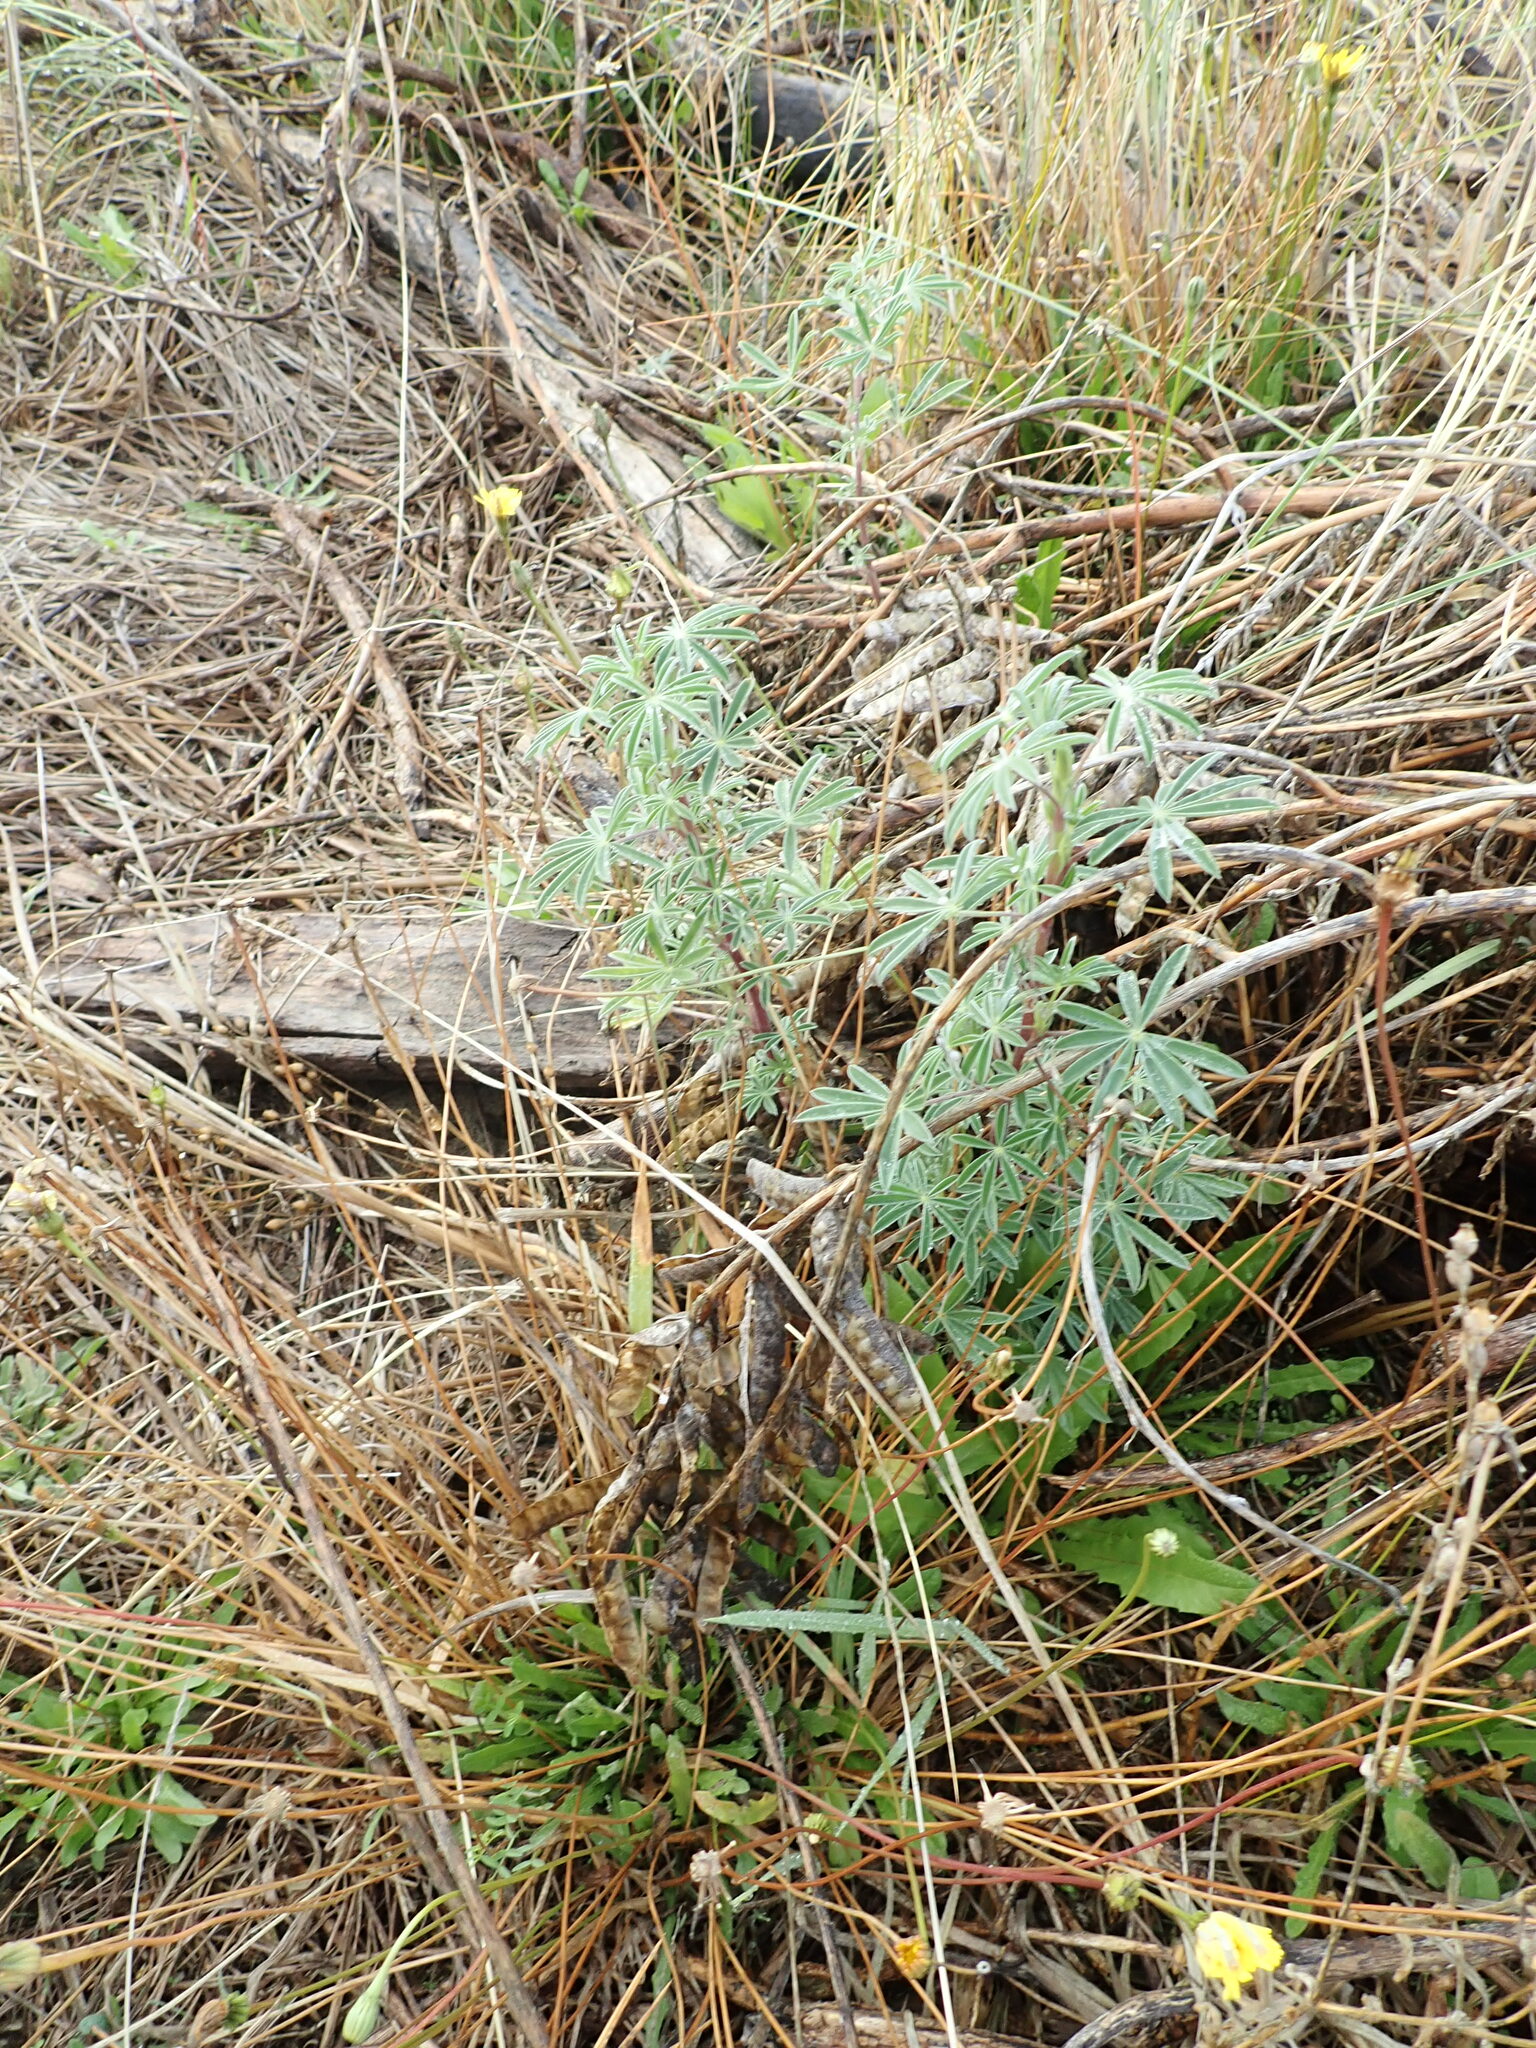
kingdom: Plantae
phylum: Tracheophyta
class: Magnoliopsida
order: Fabales
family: Fabaceae
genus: Lupinus
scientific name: Lupinus arboreus
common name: Yellow bush lupine
